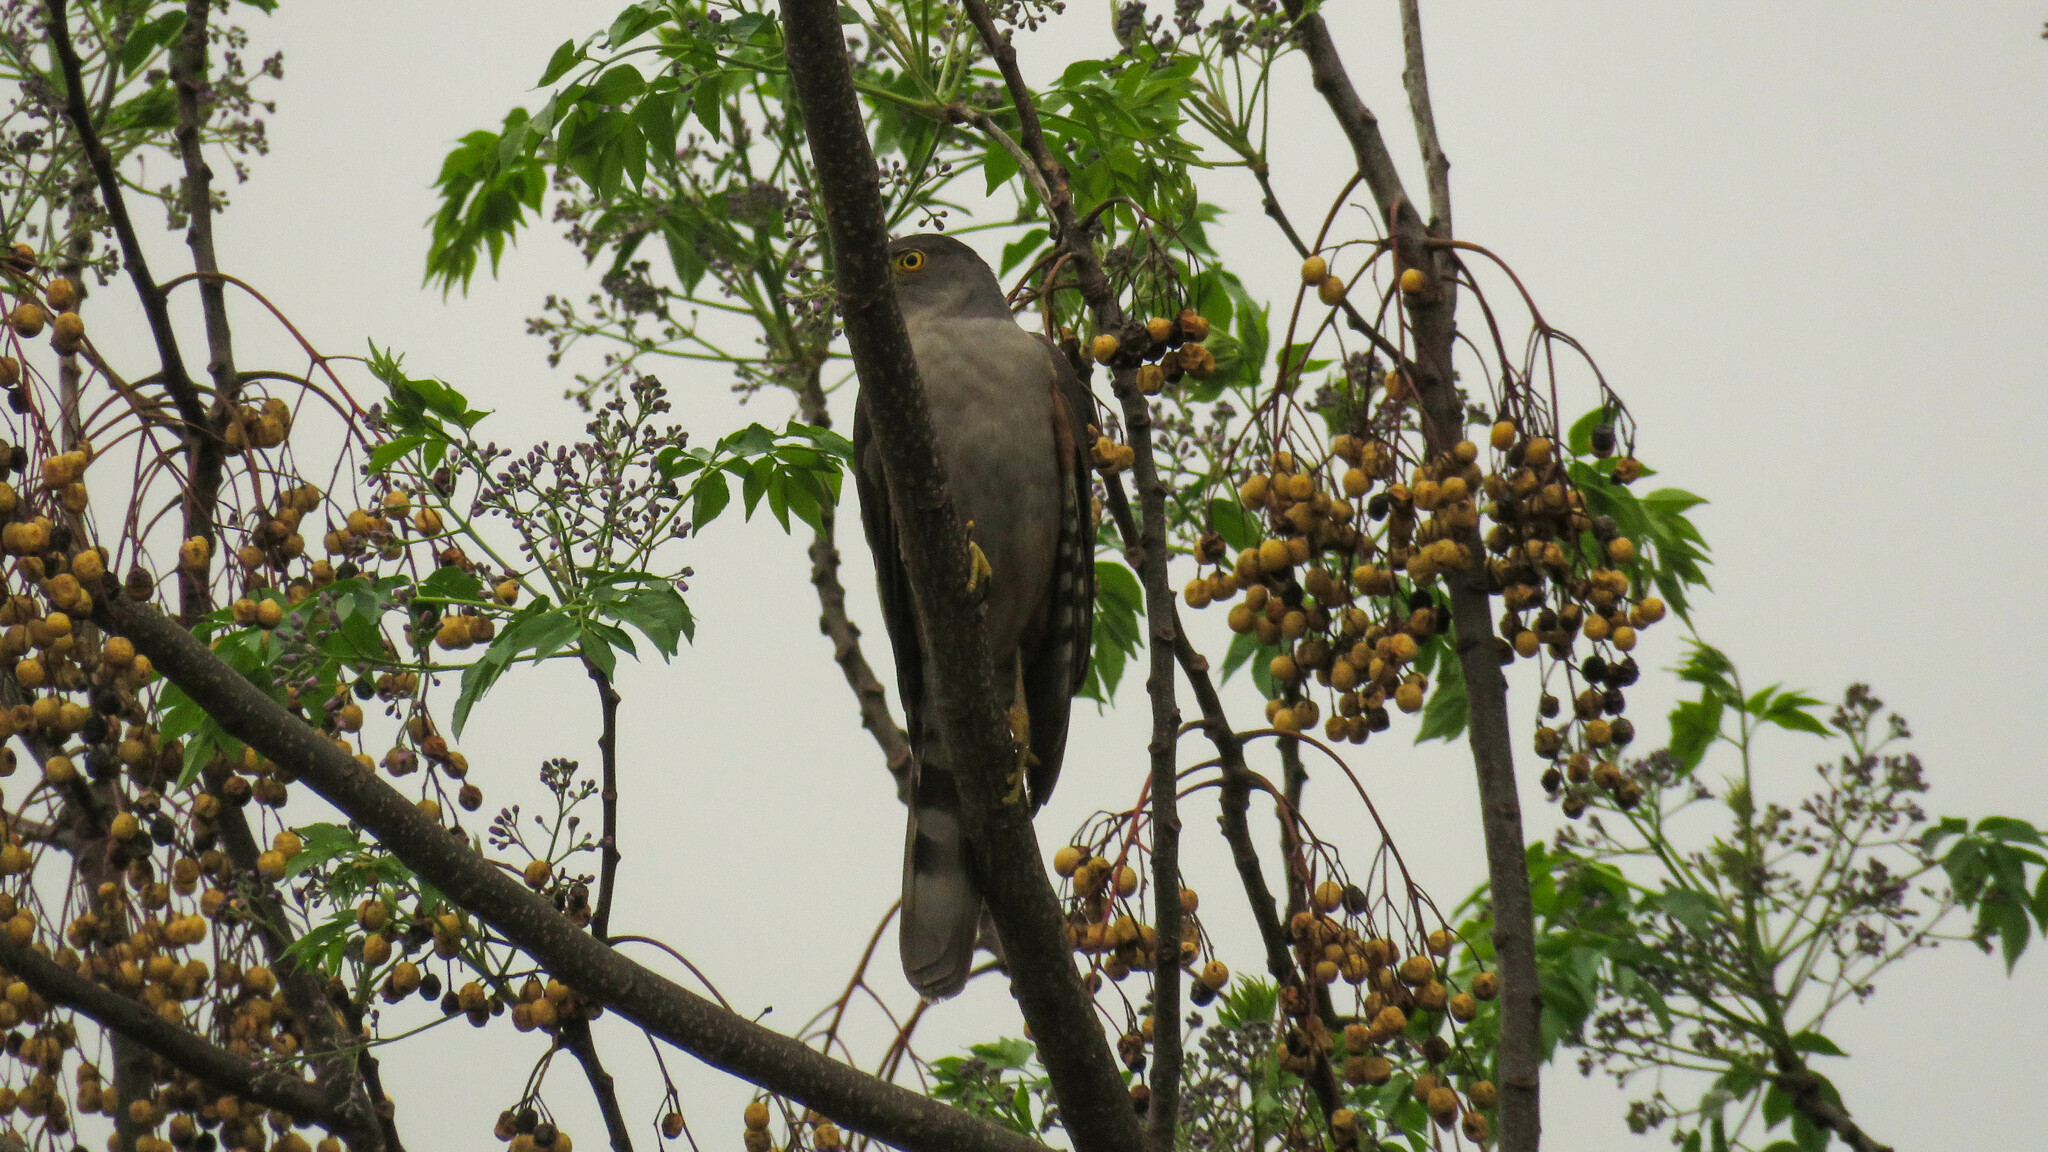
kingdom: Animalia
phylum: Chordata
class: Aves
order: Accipitriformes
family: Accipitridae
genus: Accipiter
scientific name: Accipiter bicolor
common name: Bicolored hawk
